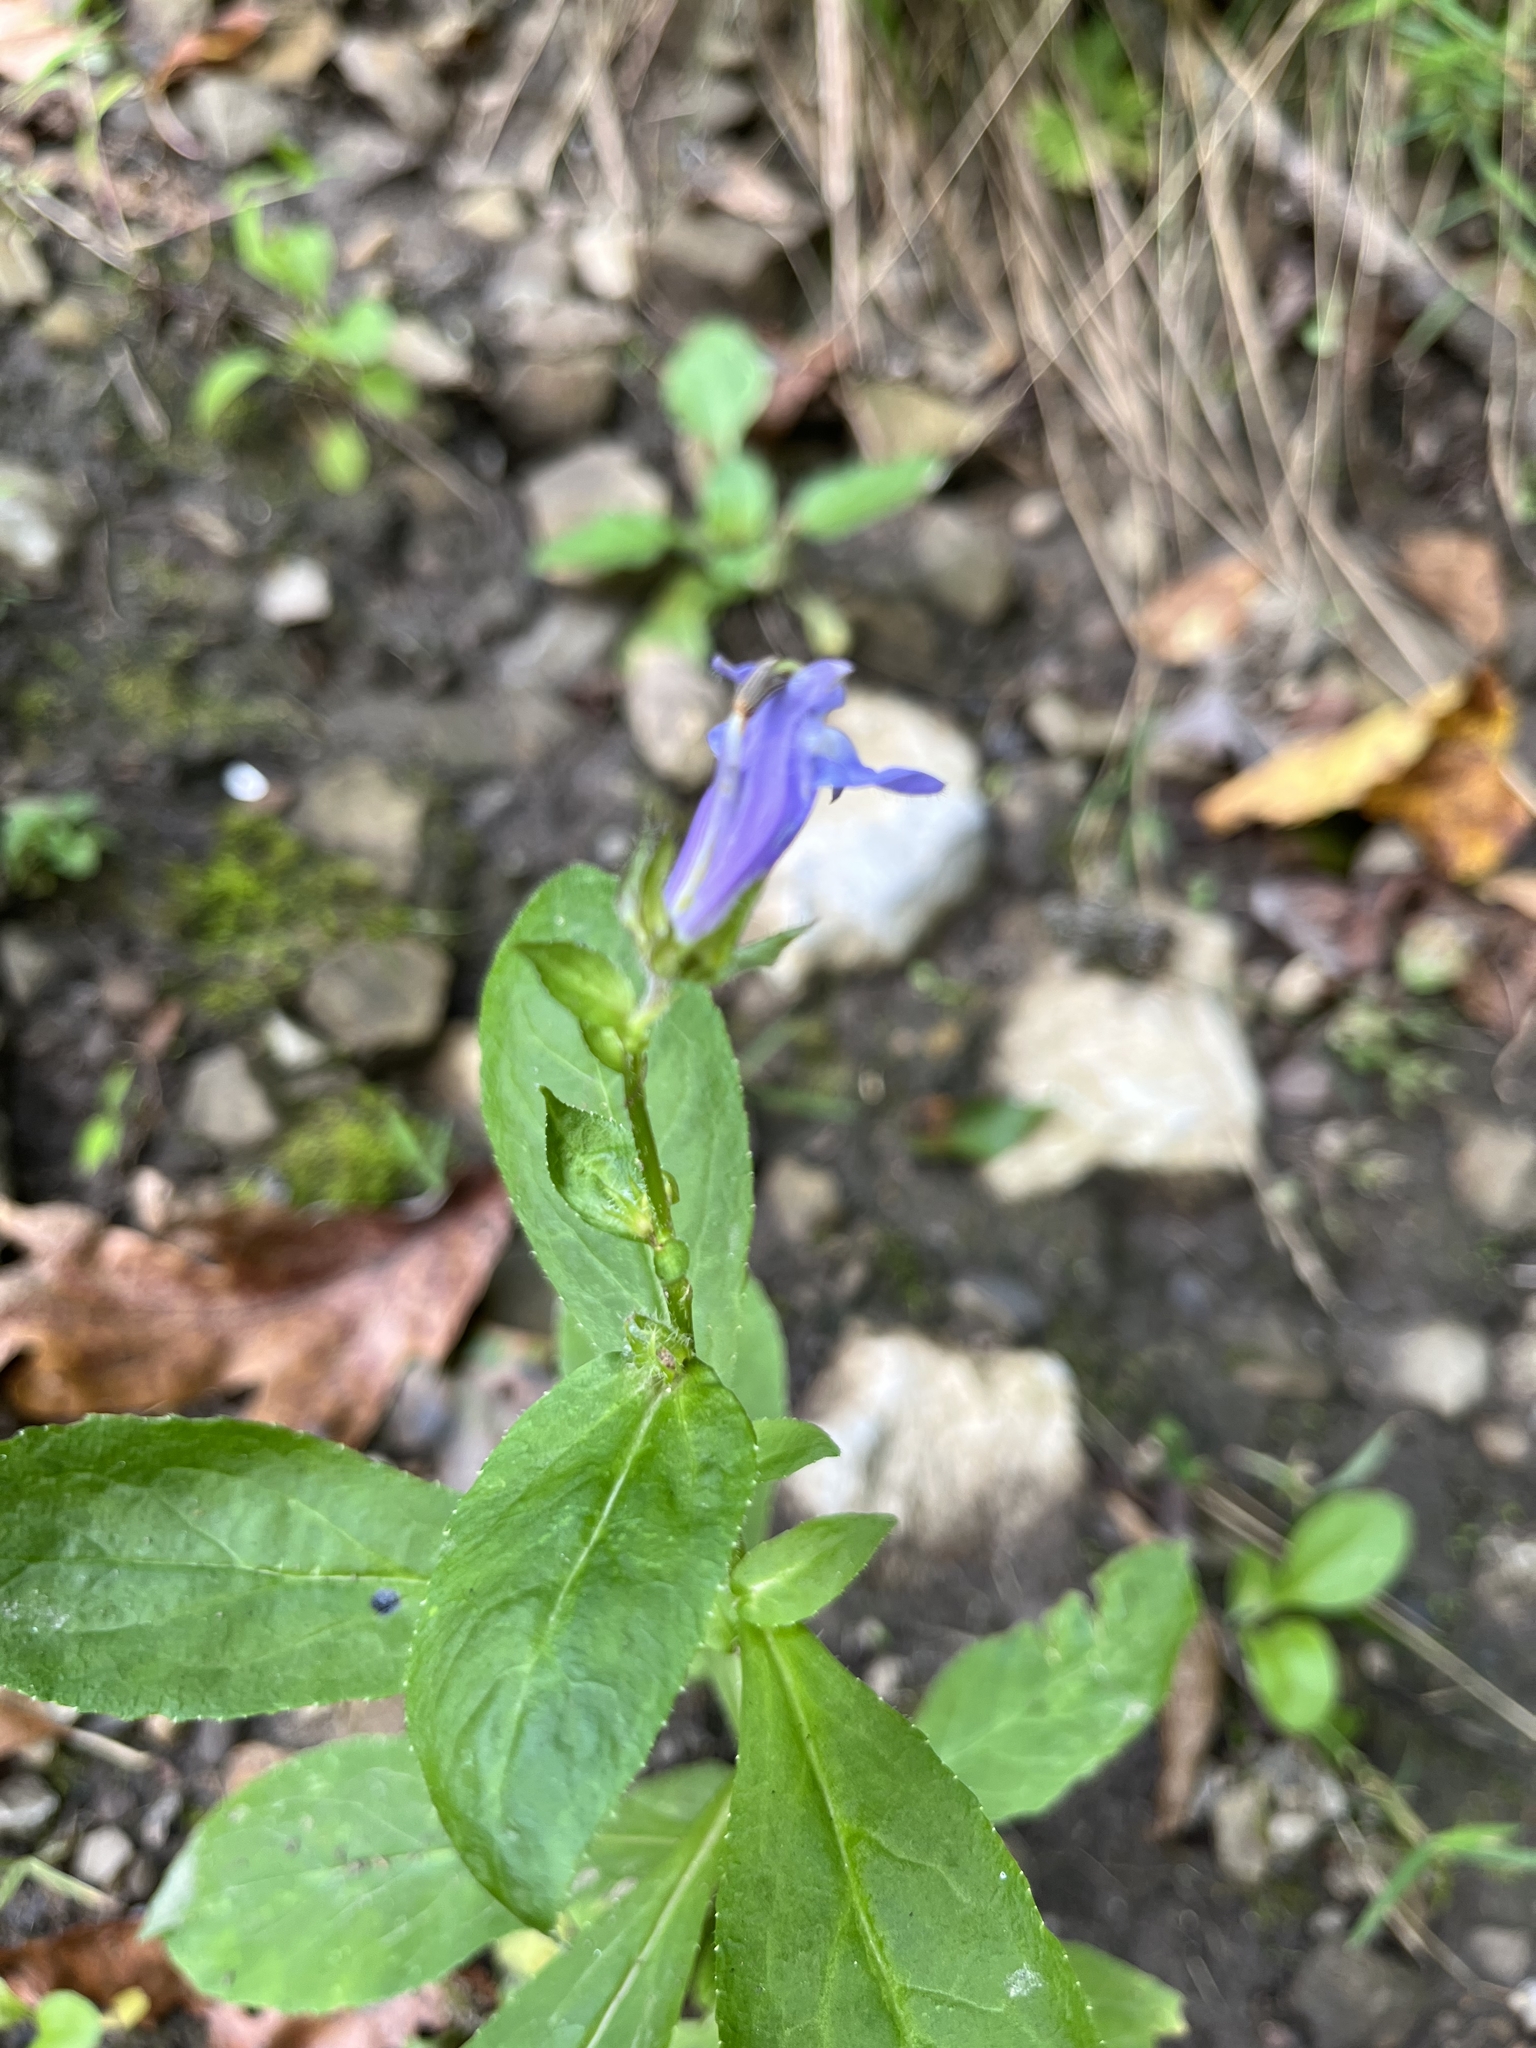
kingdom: Plantae
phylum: Tracheophyta
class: Magnoliopsida
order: Asterales
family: Campanulaceae
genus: Lobelia
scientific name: Lobelia siphilitica
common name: Great lobelia
